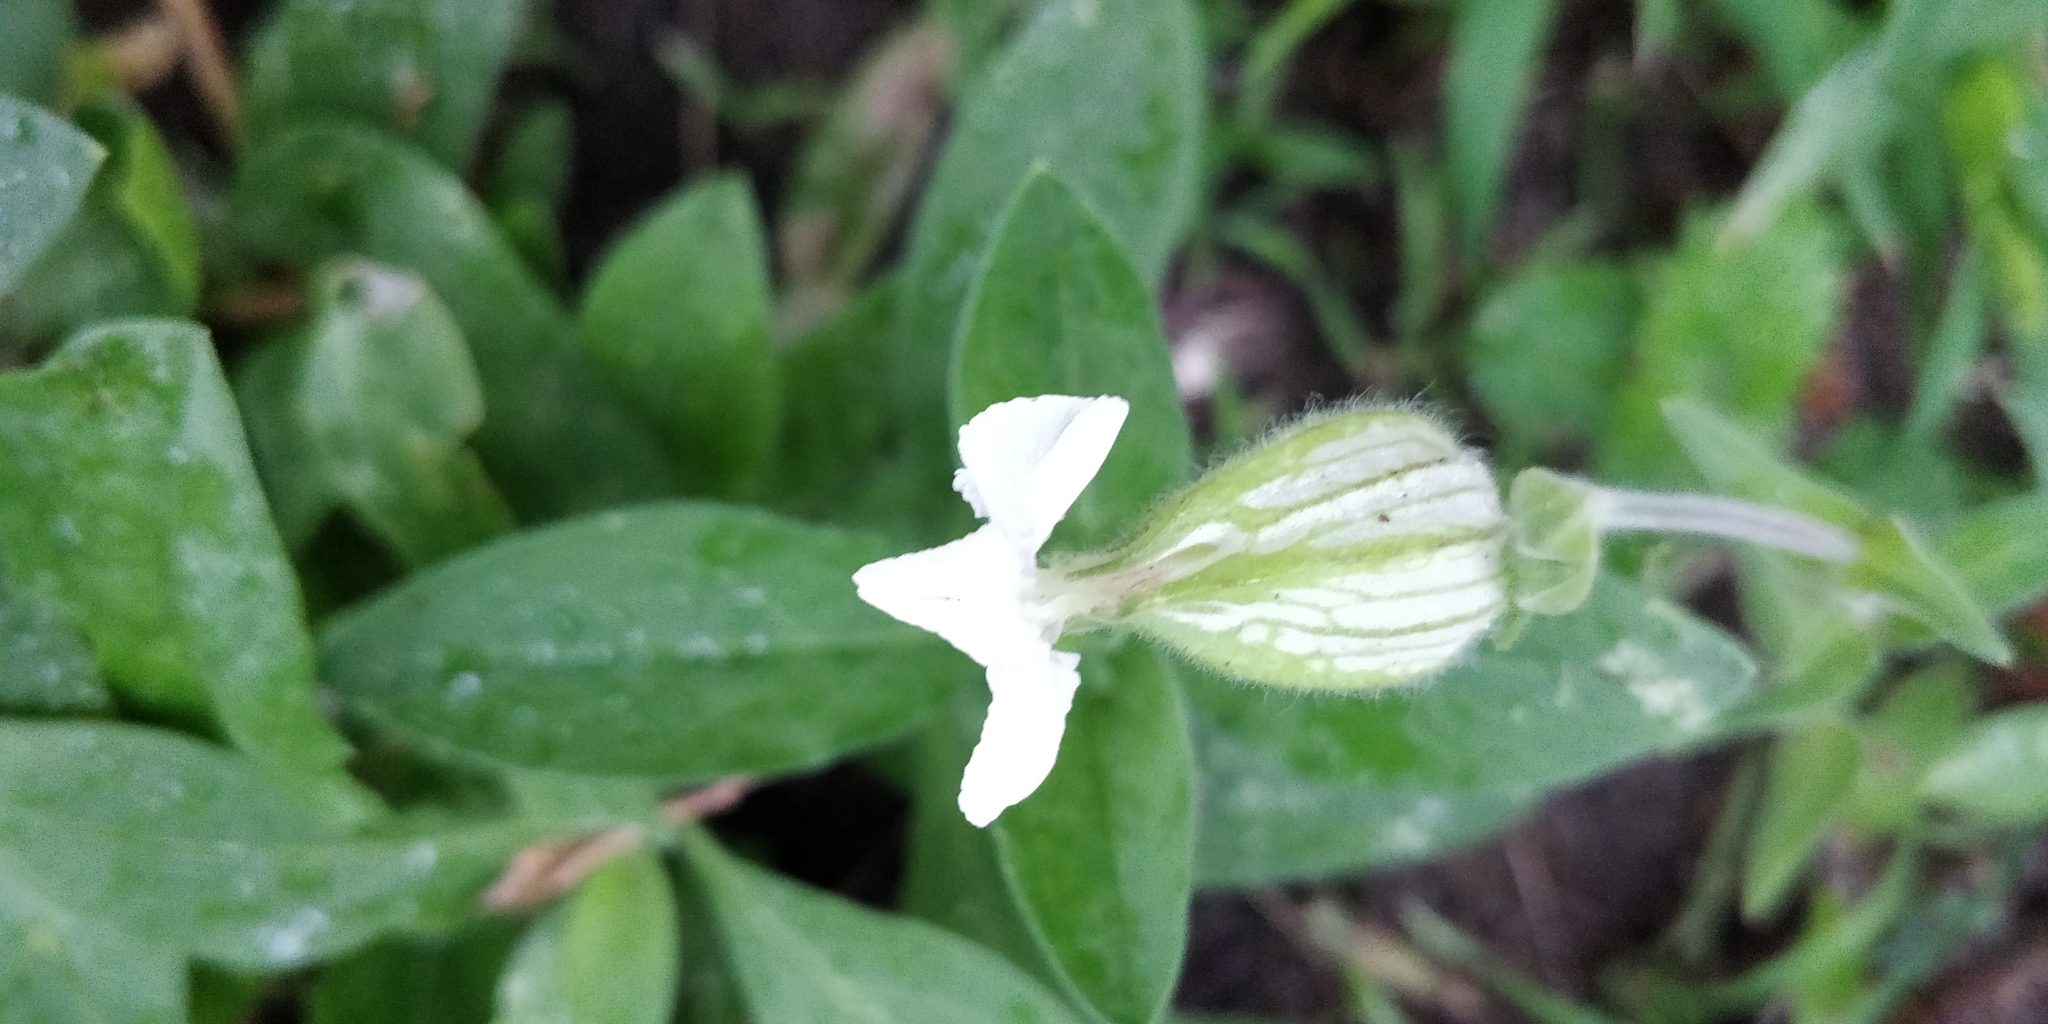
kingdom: Plantae
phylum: Tracheophyta
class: Magnoliopsida
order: Caryophyllales
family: Caryophyllaceae
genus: Silene
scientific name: Silene latifolia
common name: White campion
